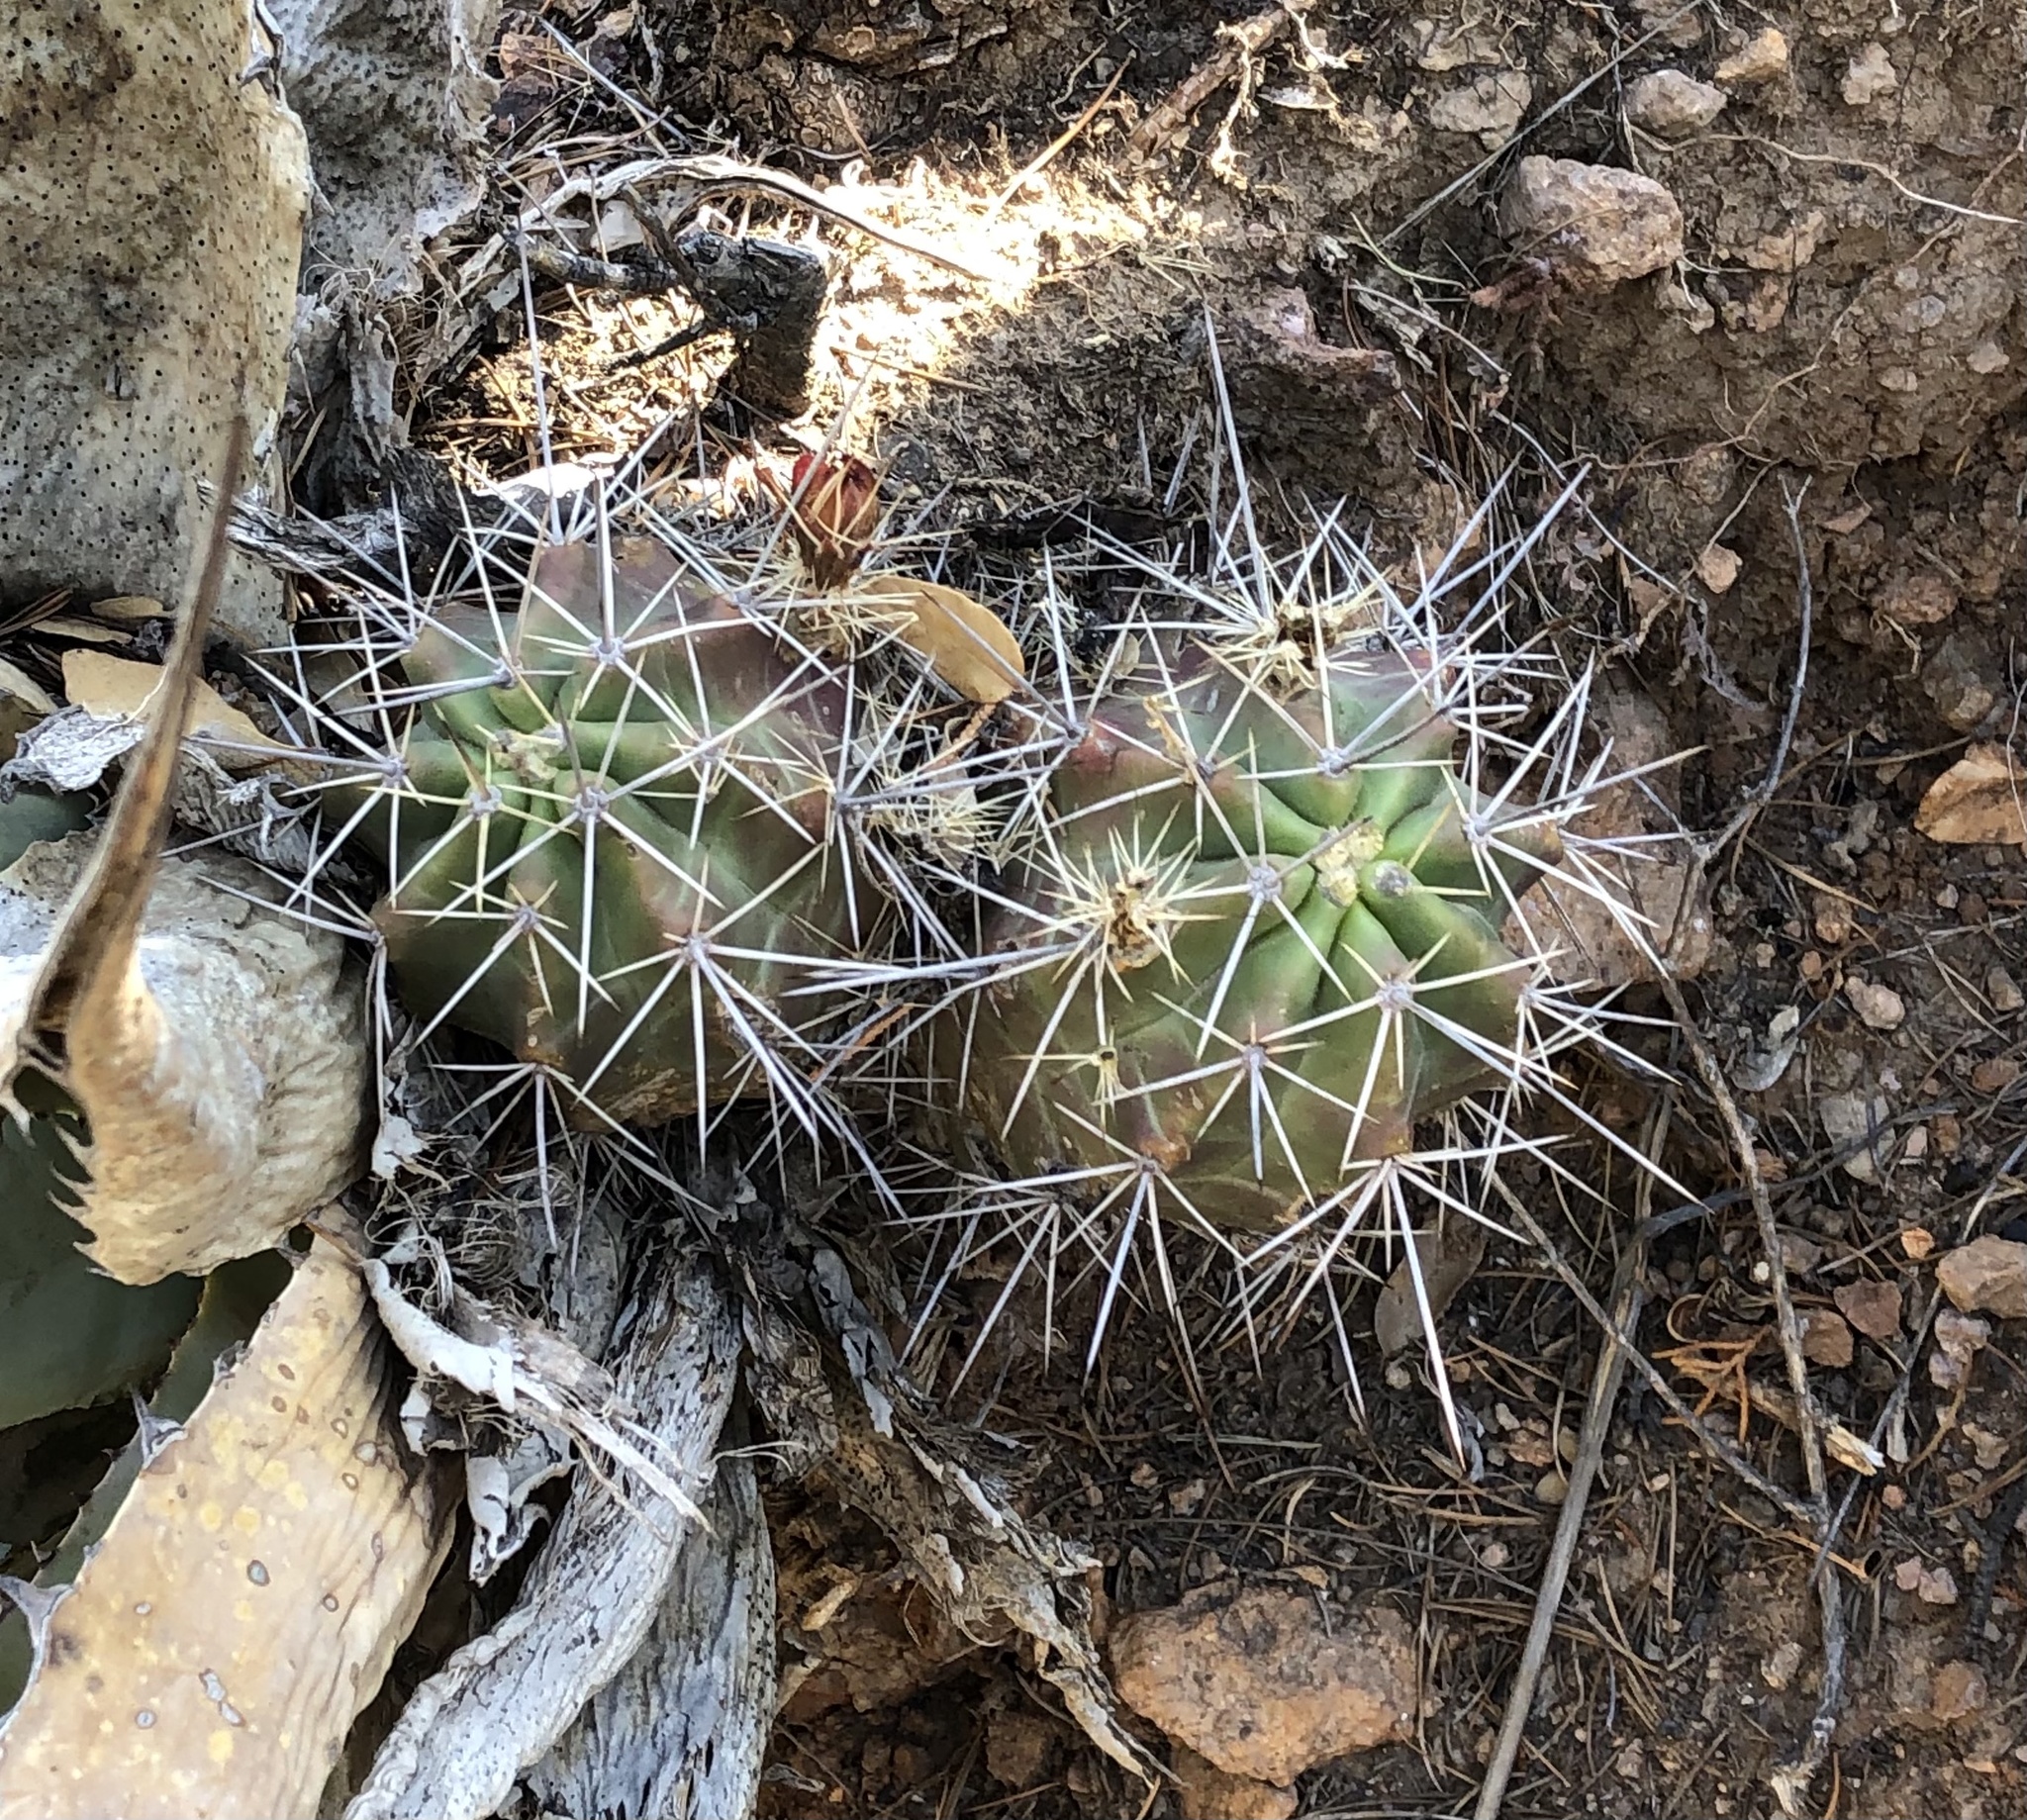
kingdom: Plantae
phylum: Tracheophyta
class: Magnoliopsida
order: Caryophyllales
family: Cactaceae
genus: Echinocereus
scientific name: Echinocereus coccineus
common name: Scarlet hedgehog cactus
